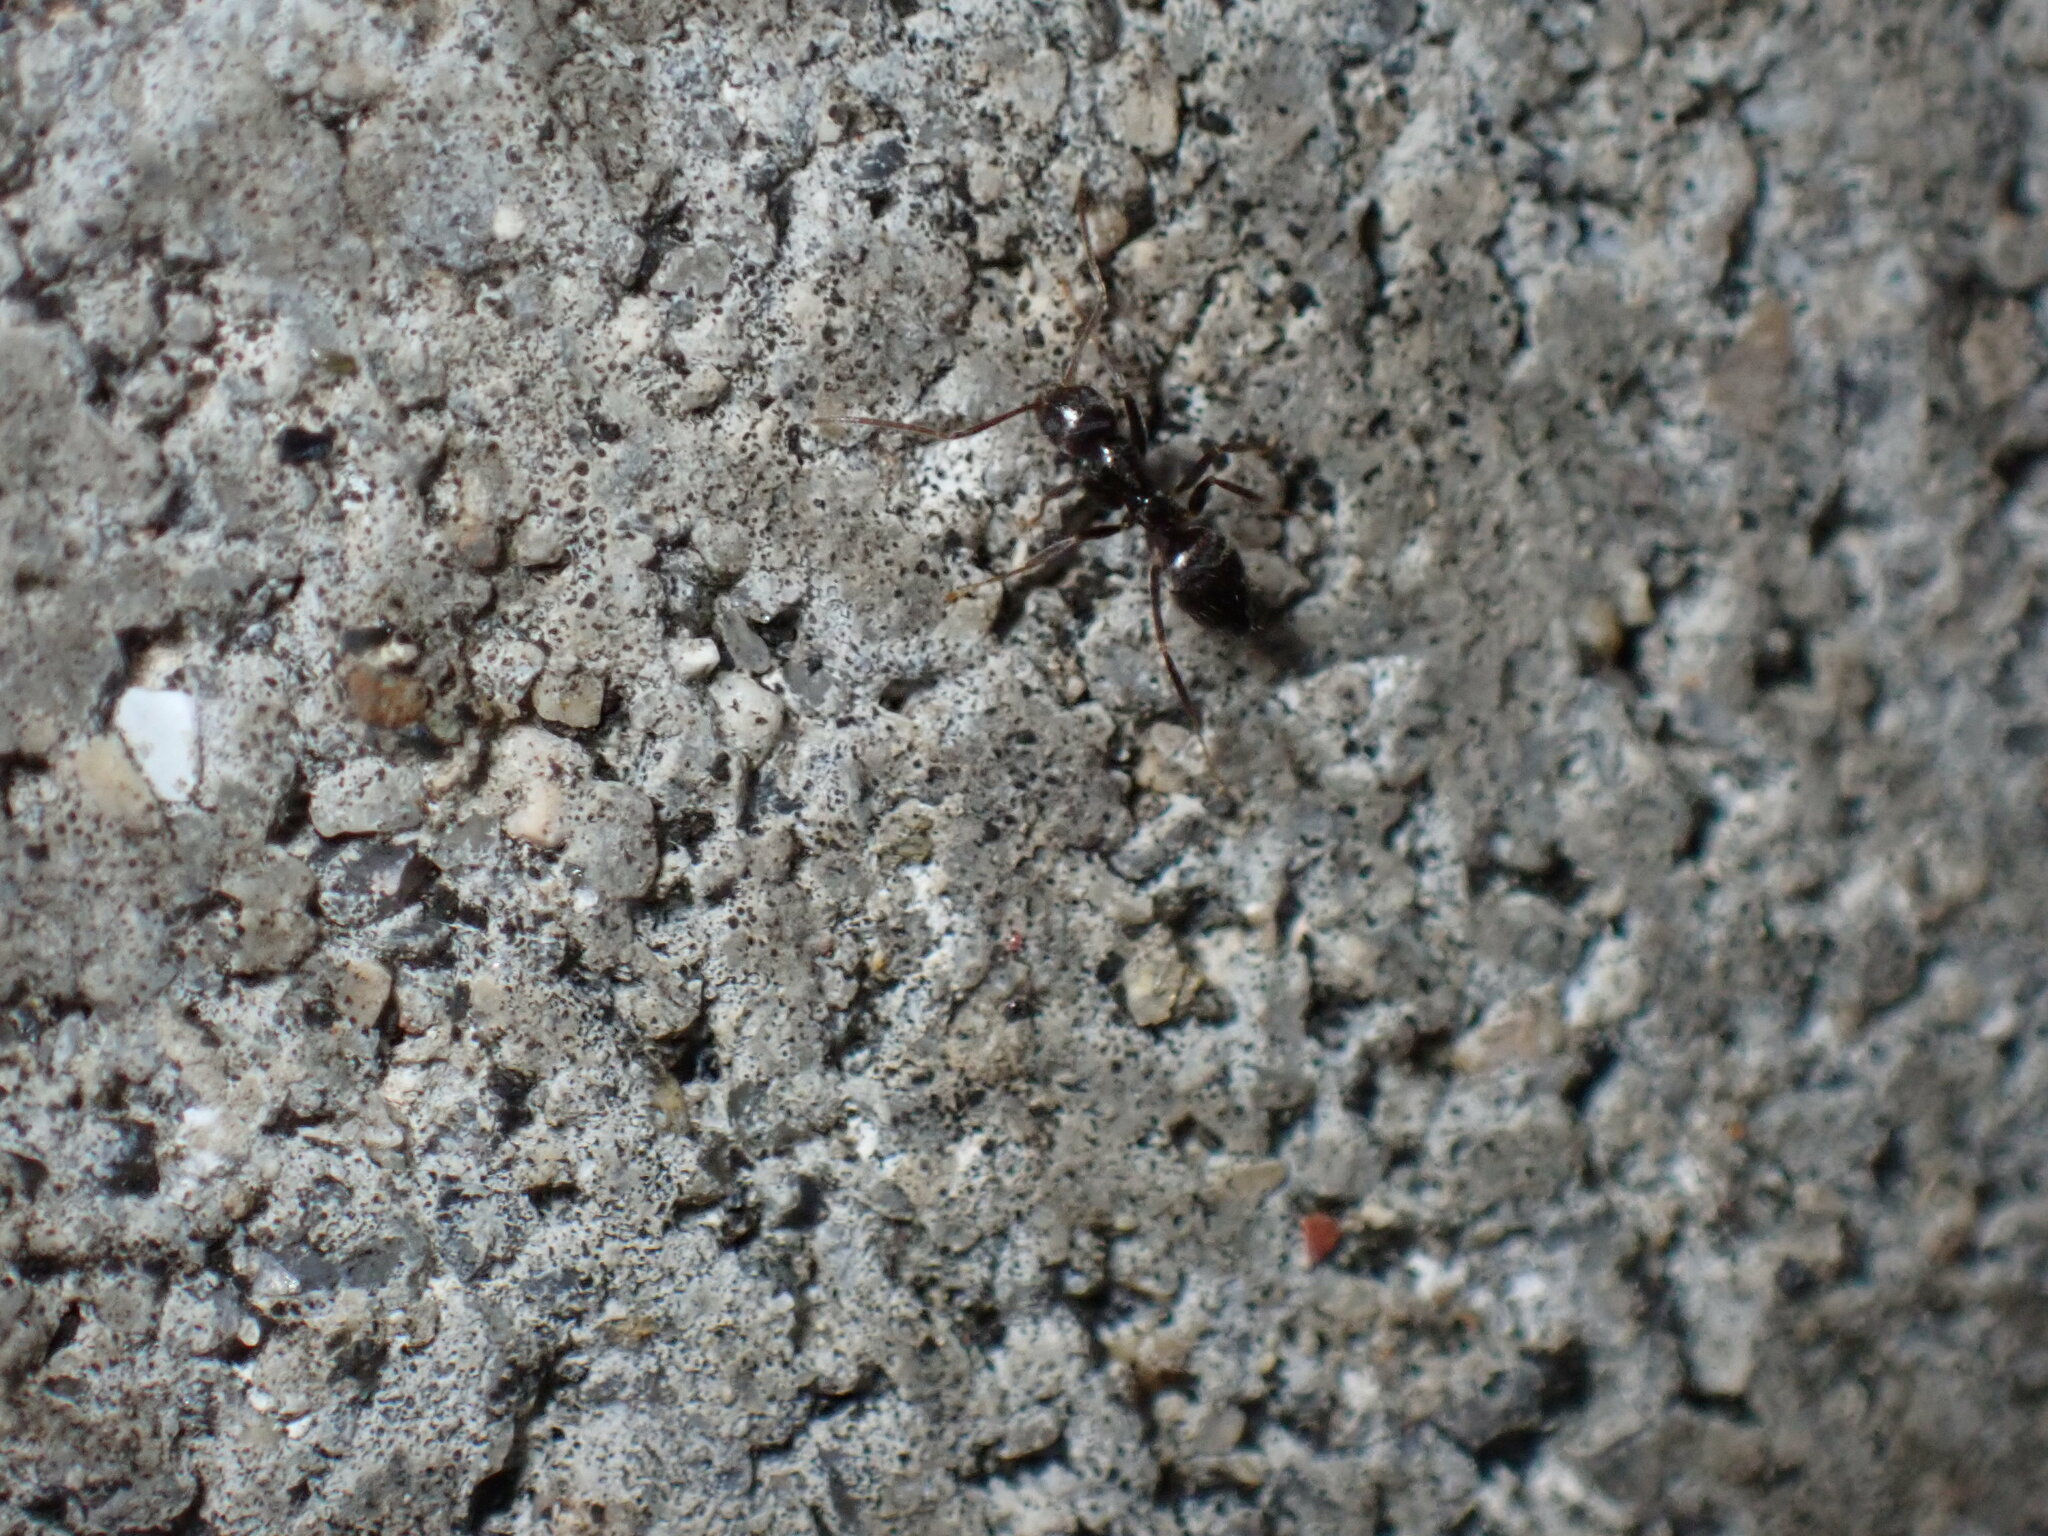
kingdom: Animalia
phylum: Arthropoda
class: Insecta
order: Hymenoptera
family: Formicidae
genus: Nylanderia
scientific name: Nylanderia amia
